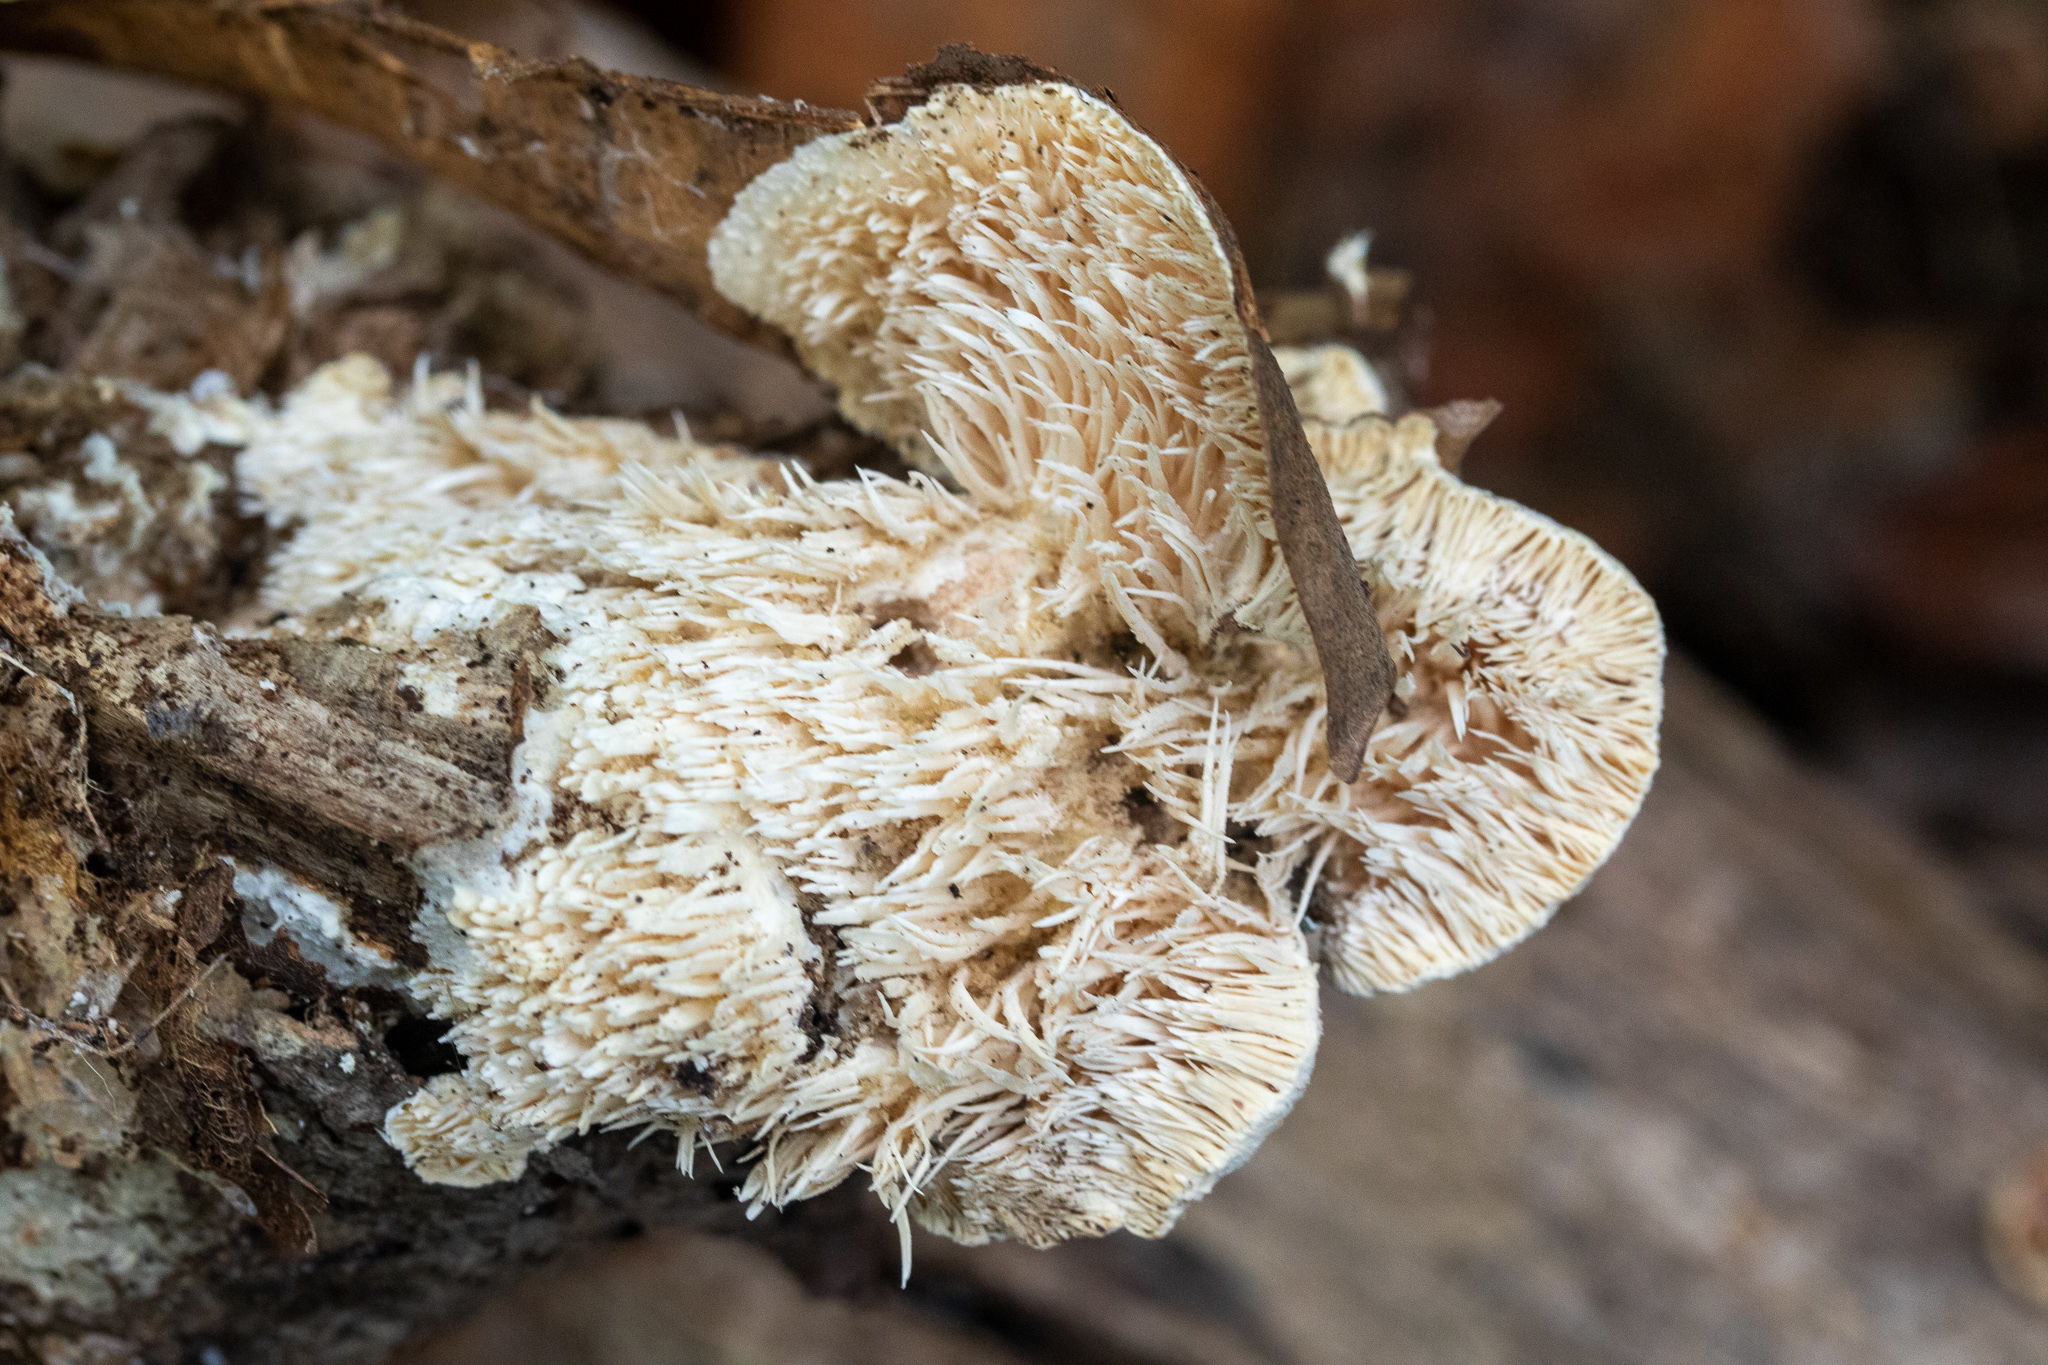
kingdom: Fungi
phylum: Basidiomycota
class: Agaricomycetes
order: Polyporales
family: Irpicaceae
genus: Irpex
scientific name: Irpex lacteus
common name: Milk-white toothed polypore
